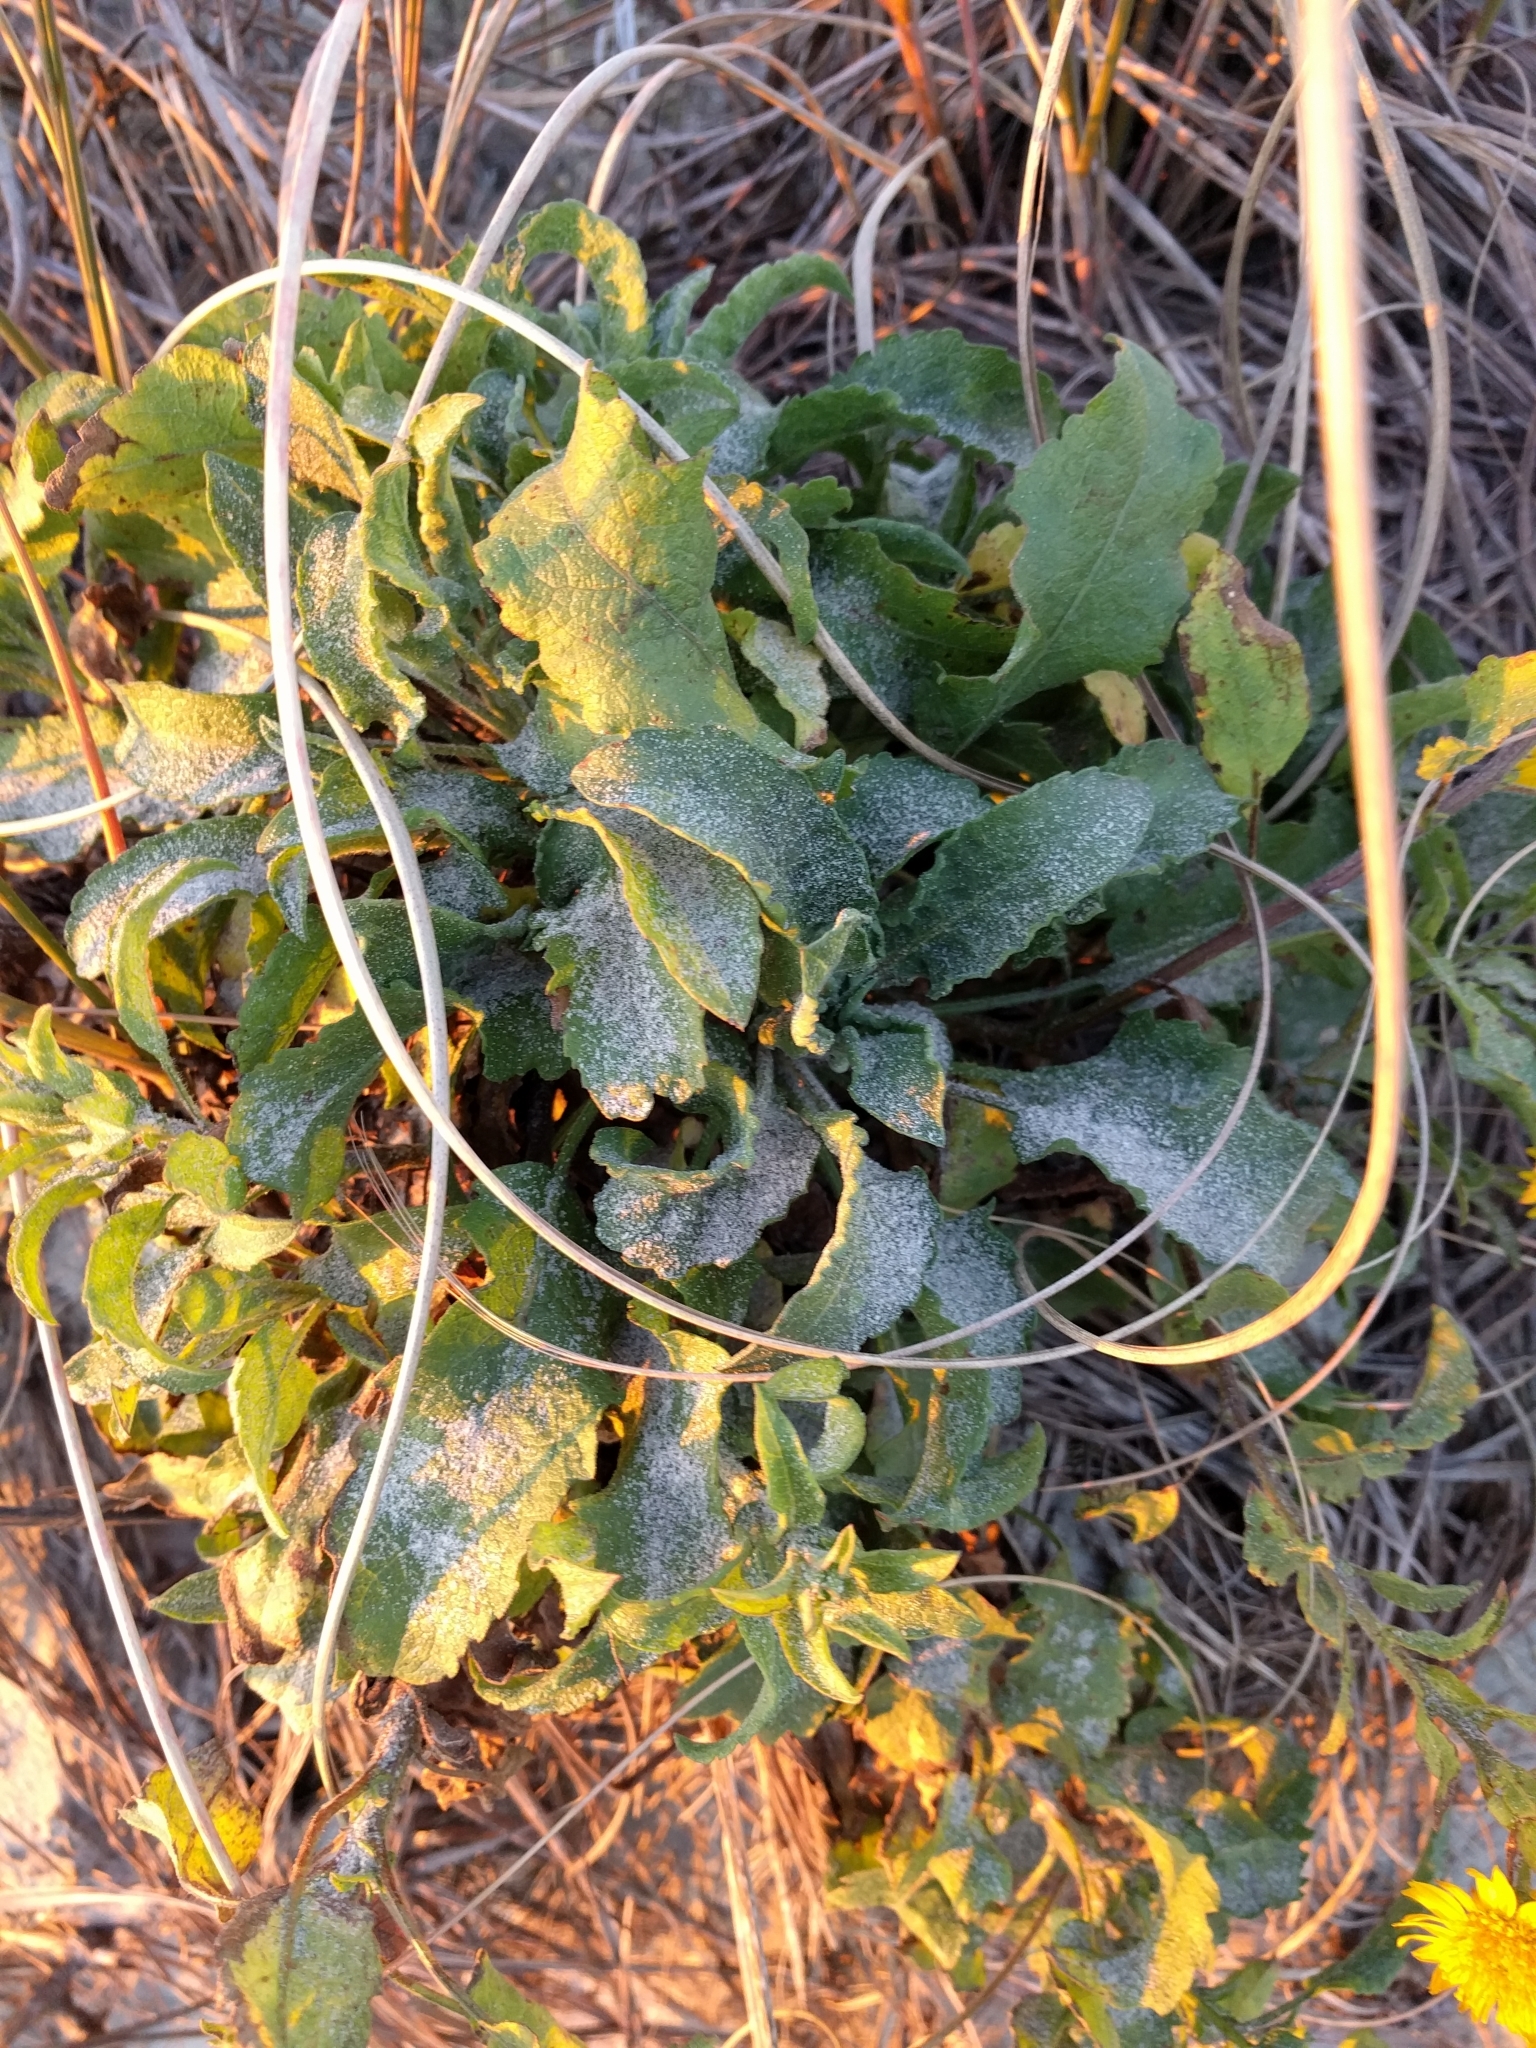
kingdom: Plantae
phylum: Tracheophyta
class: Magnoliopsida
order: Asterales
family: Asteraceae
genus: Heterotheca
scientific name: Heterotheca subaxillaris
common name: Camphorweed
